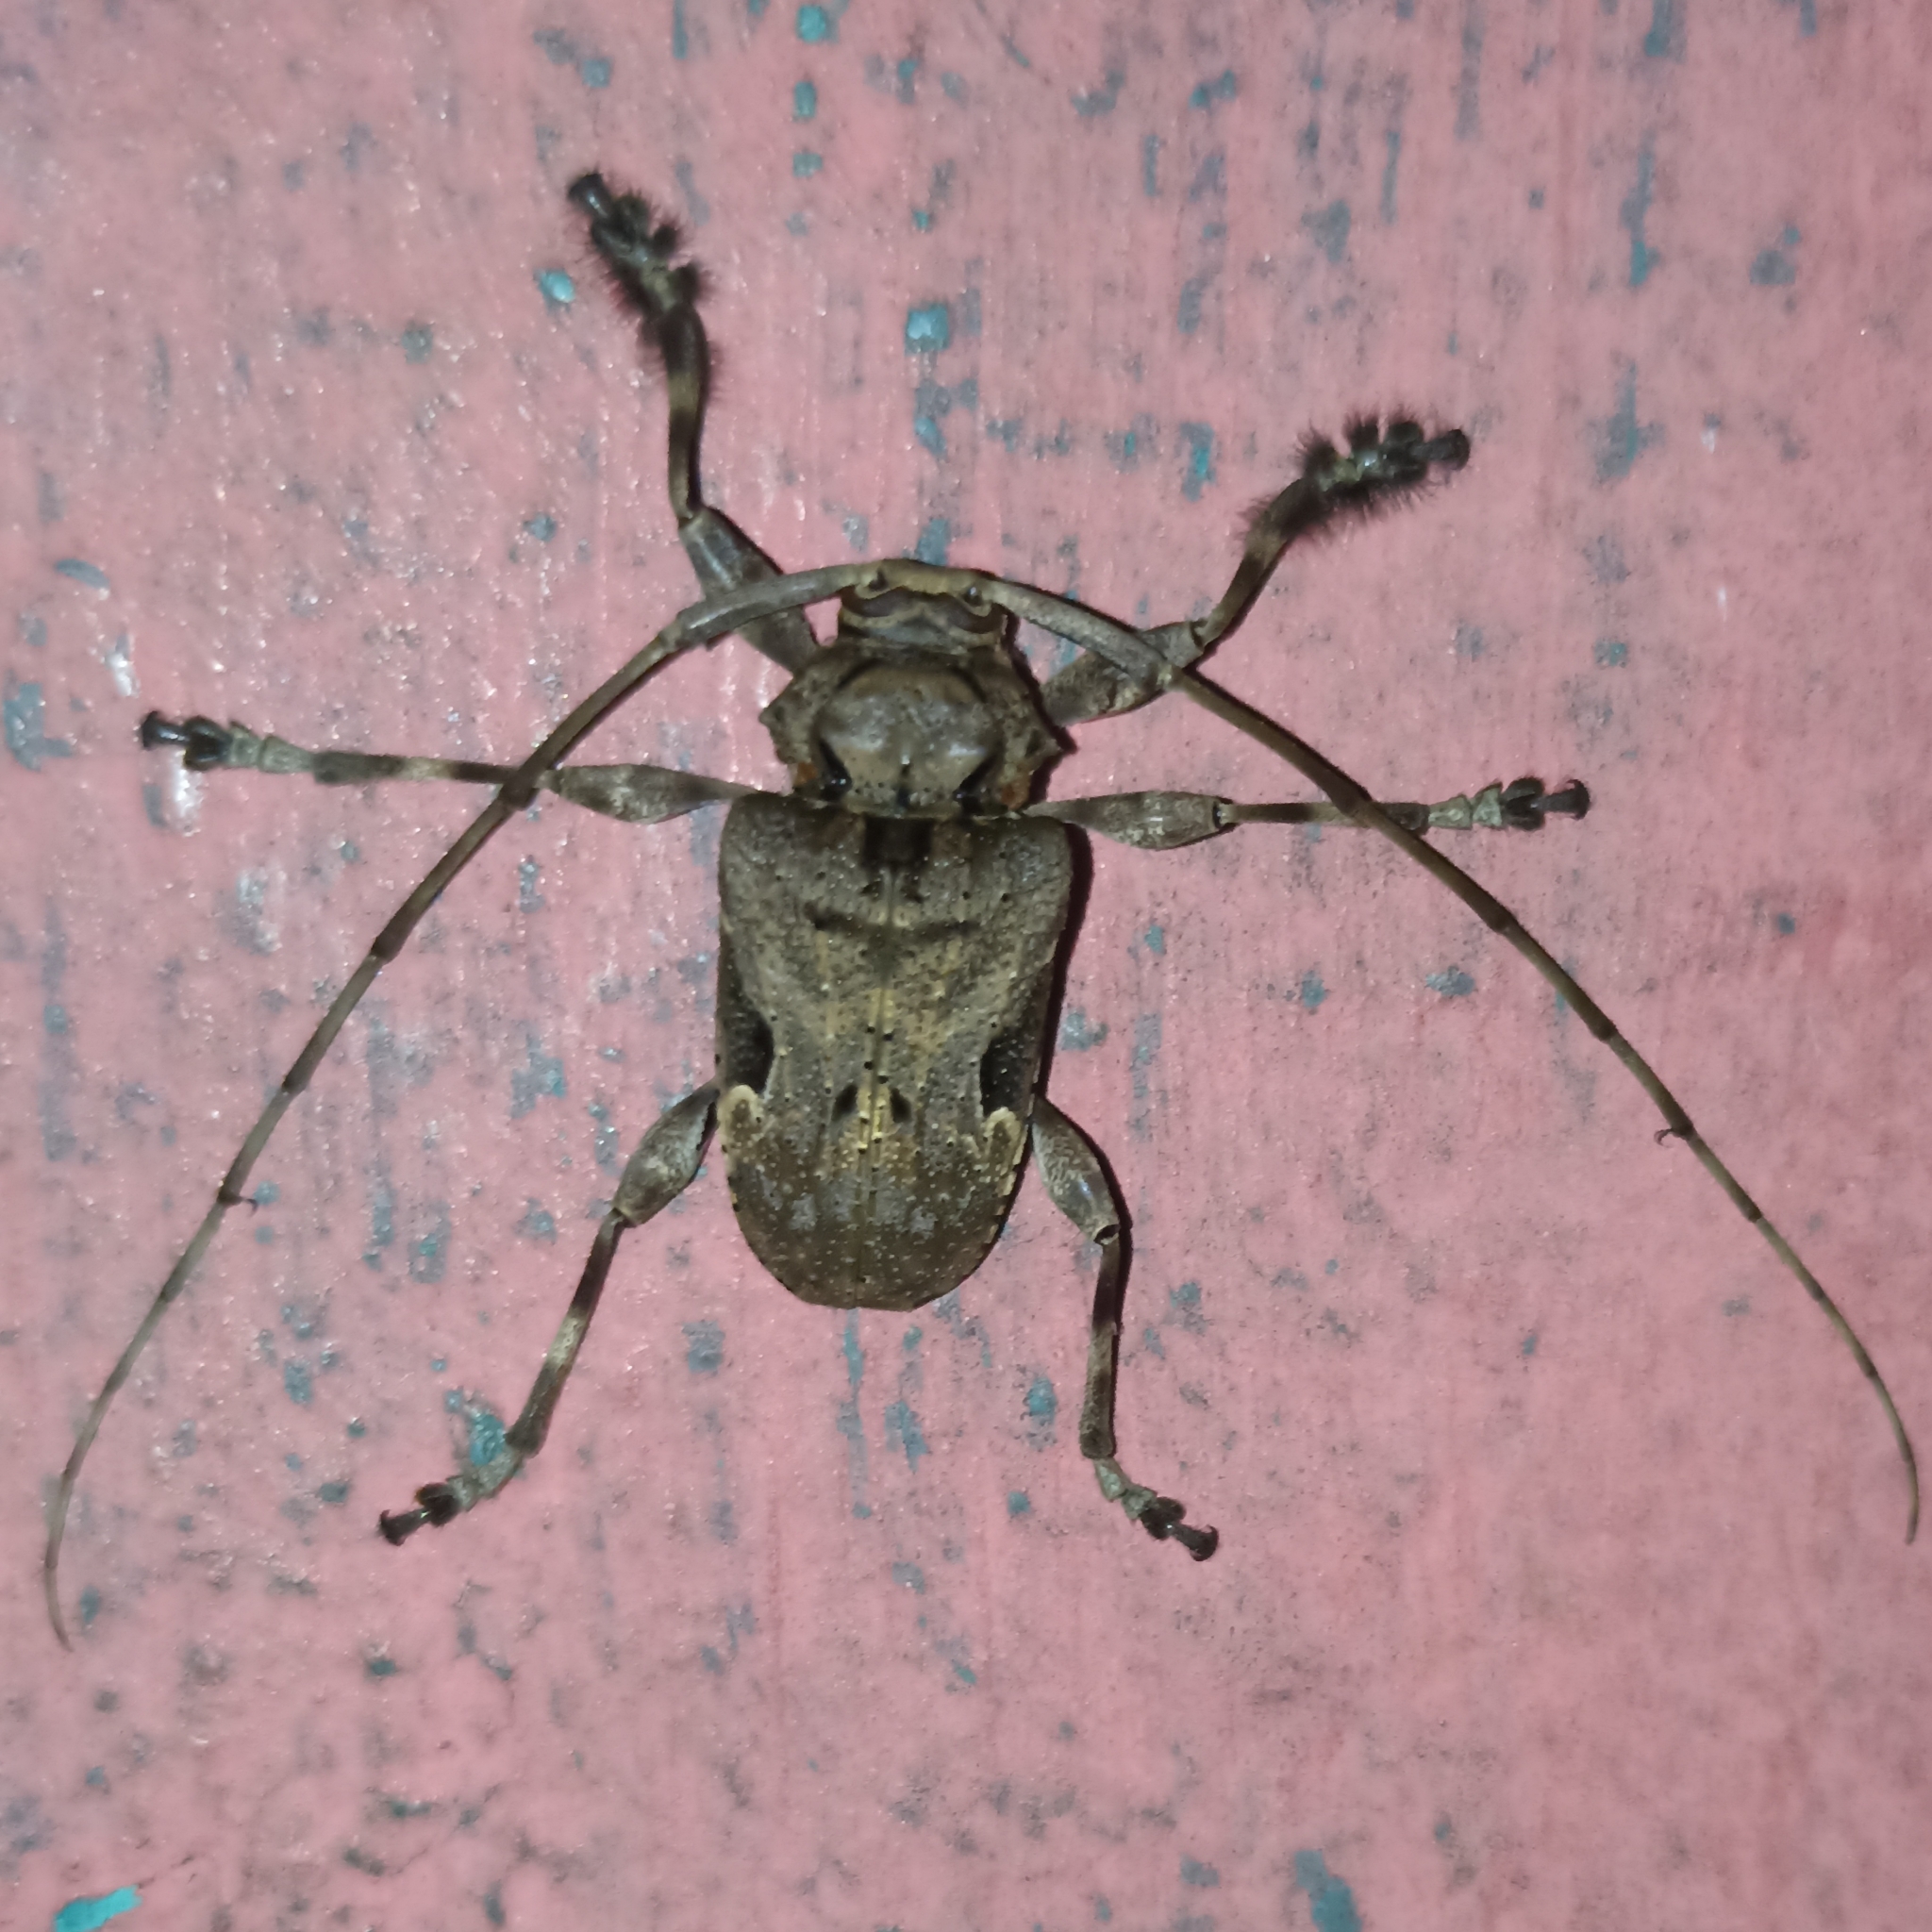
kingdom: Animalia
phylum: Arthropoda
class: Insecta
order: Coleoptera
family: Cerambycidae
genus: Lagocheirus
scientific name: Lagocheirus araneiformis
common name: Beetle
